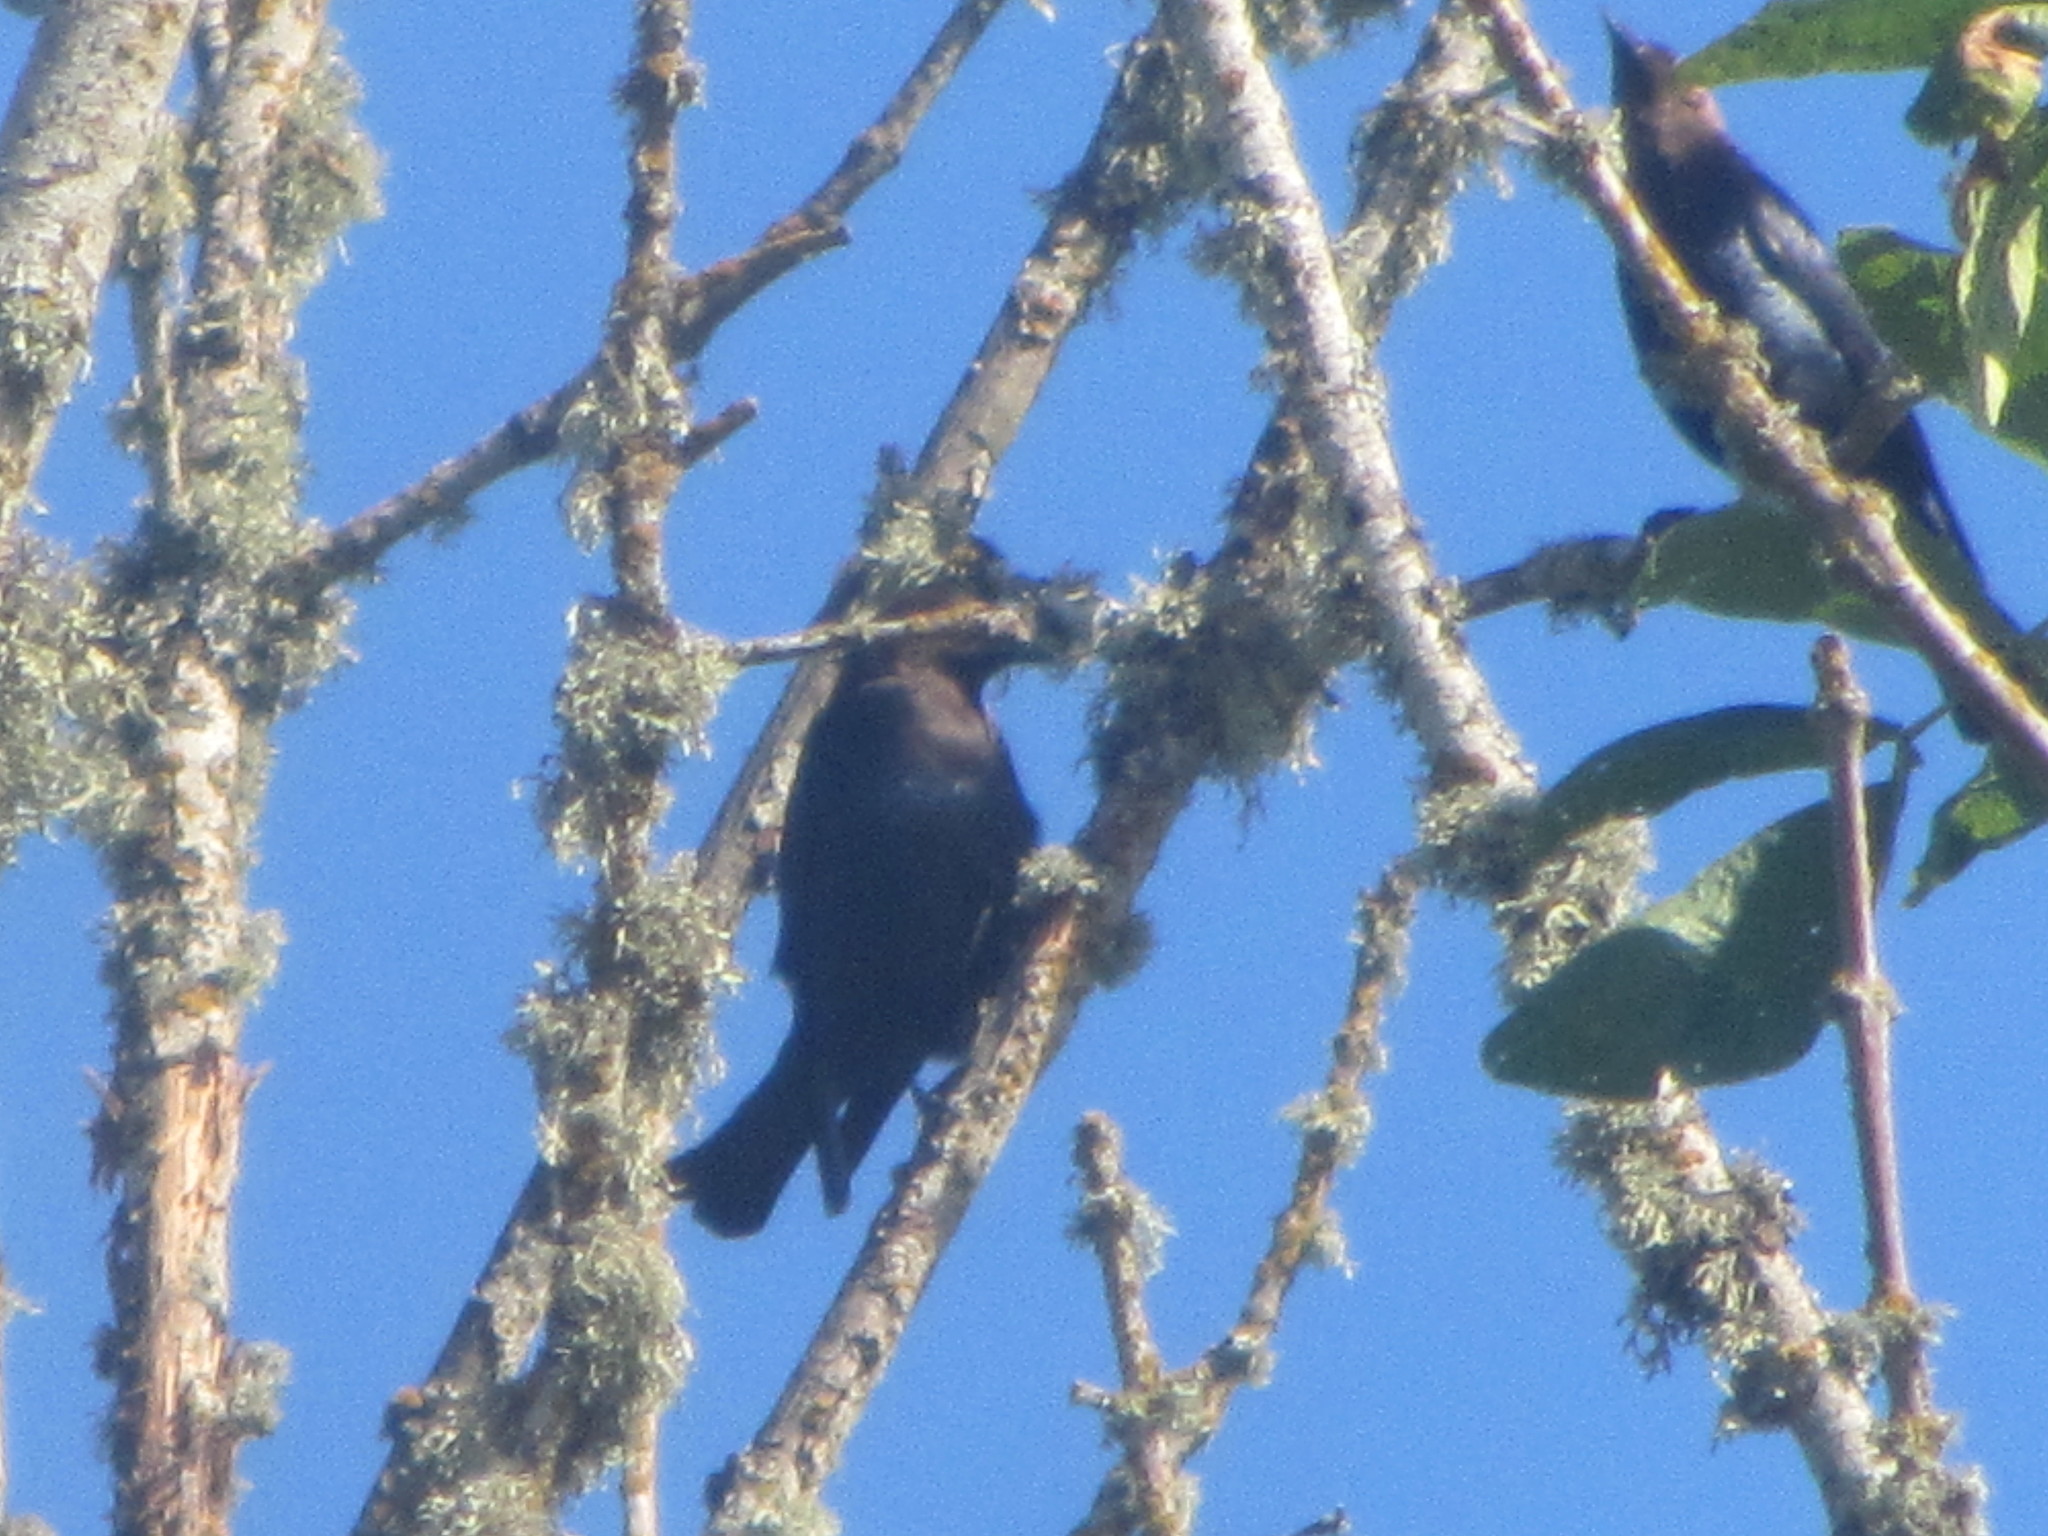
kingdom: Animalia
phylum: Chordata
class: Aves
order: Passeriformes
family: Icteridae
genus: Molothrus
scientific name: Molothrus ater
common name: Brown-headed cowbird
